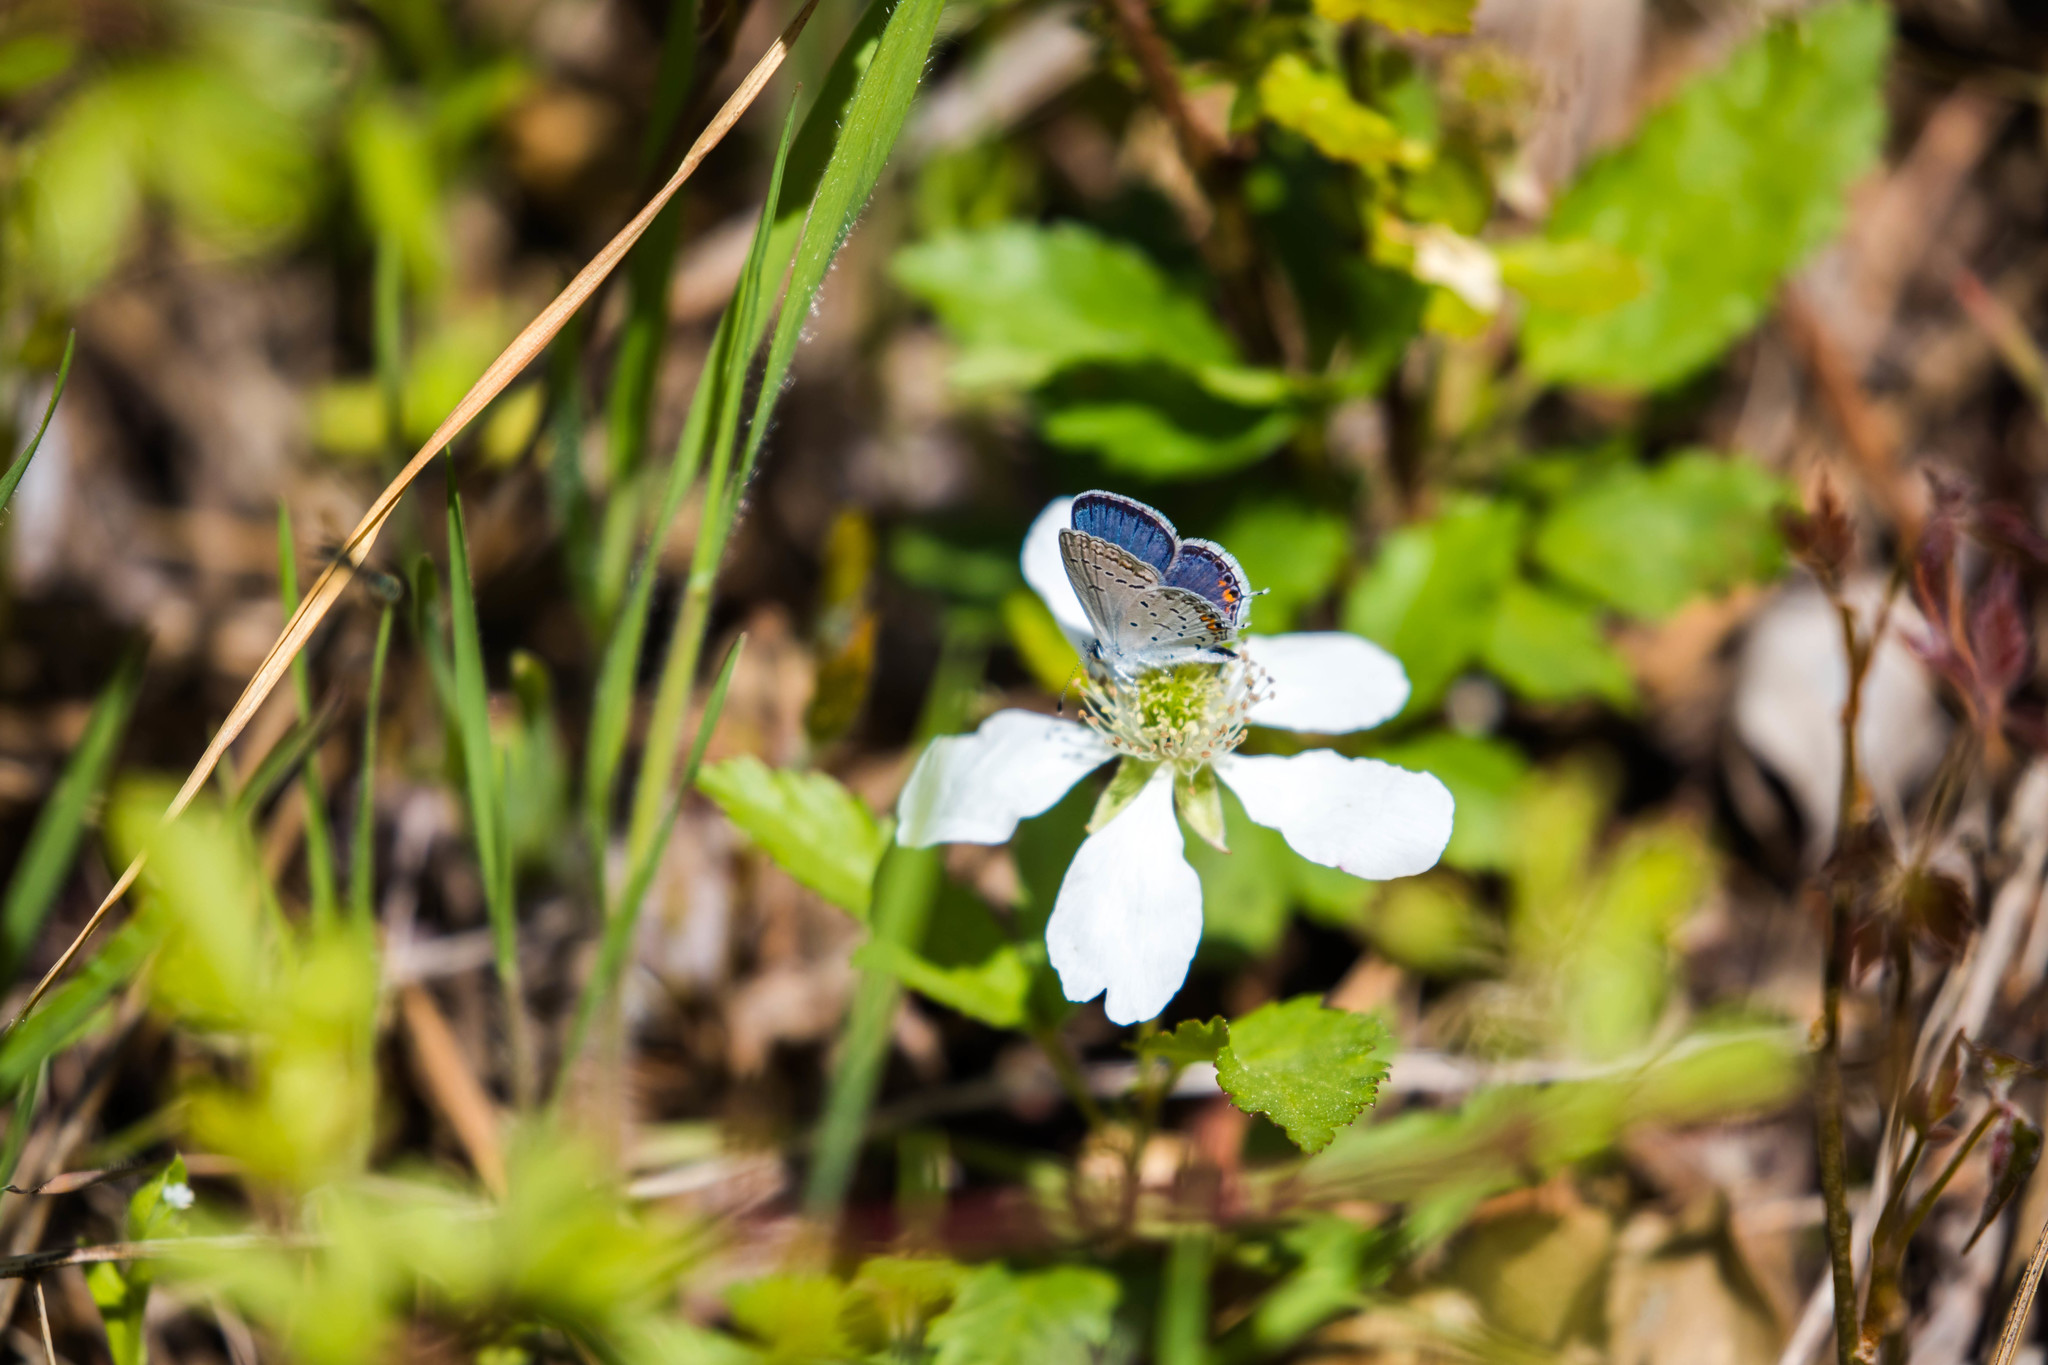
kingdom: Animalia
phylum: Arthropoda
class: Insecta
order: Lepidoptera
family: Lycaenidae
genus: Elkalyce
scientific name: Elkalyce comyntas
